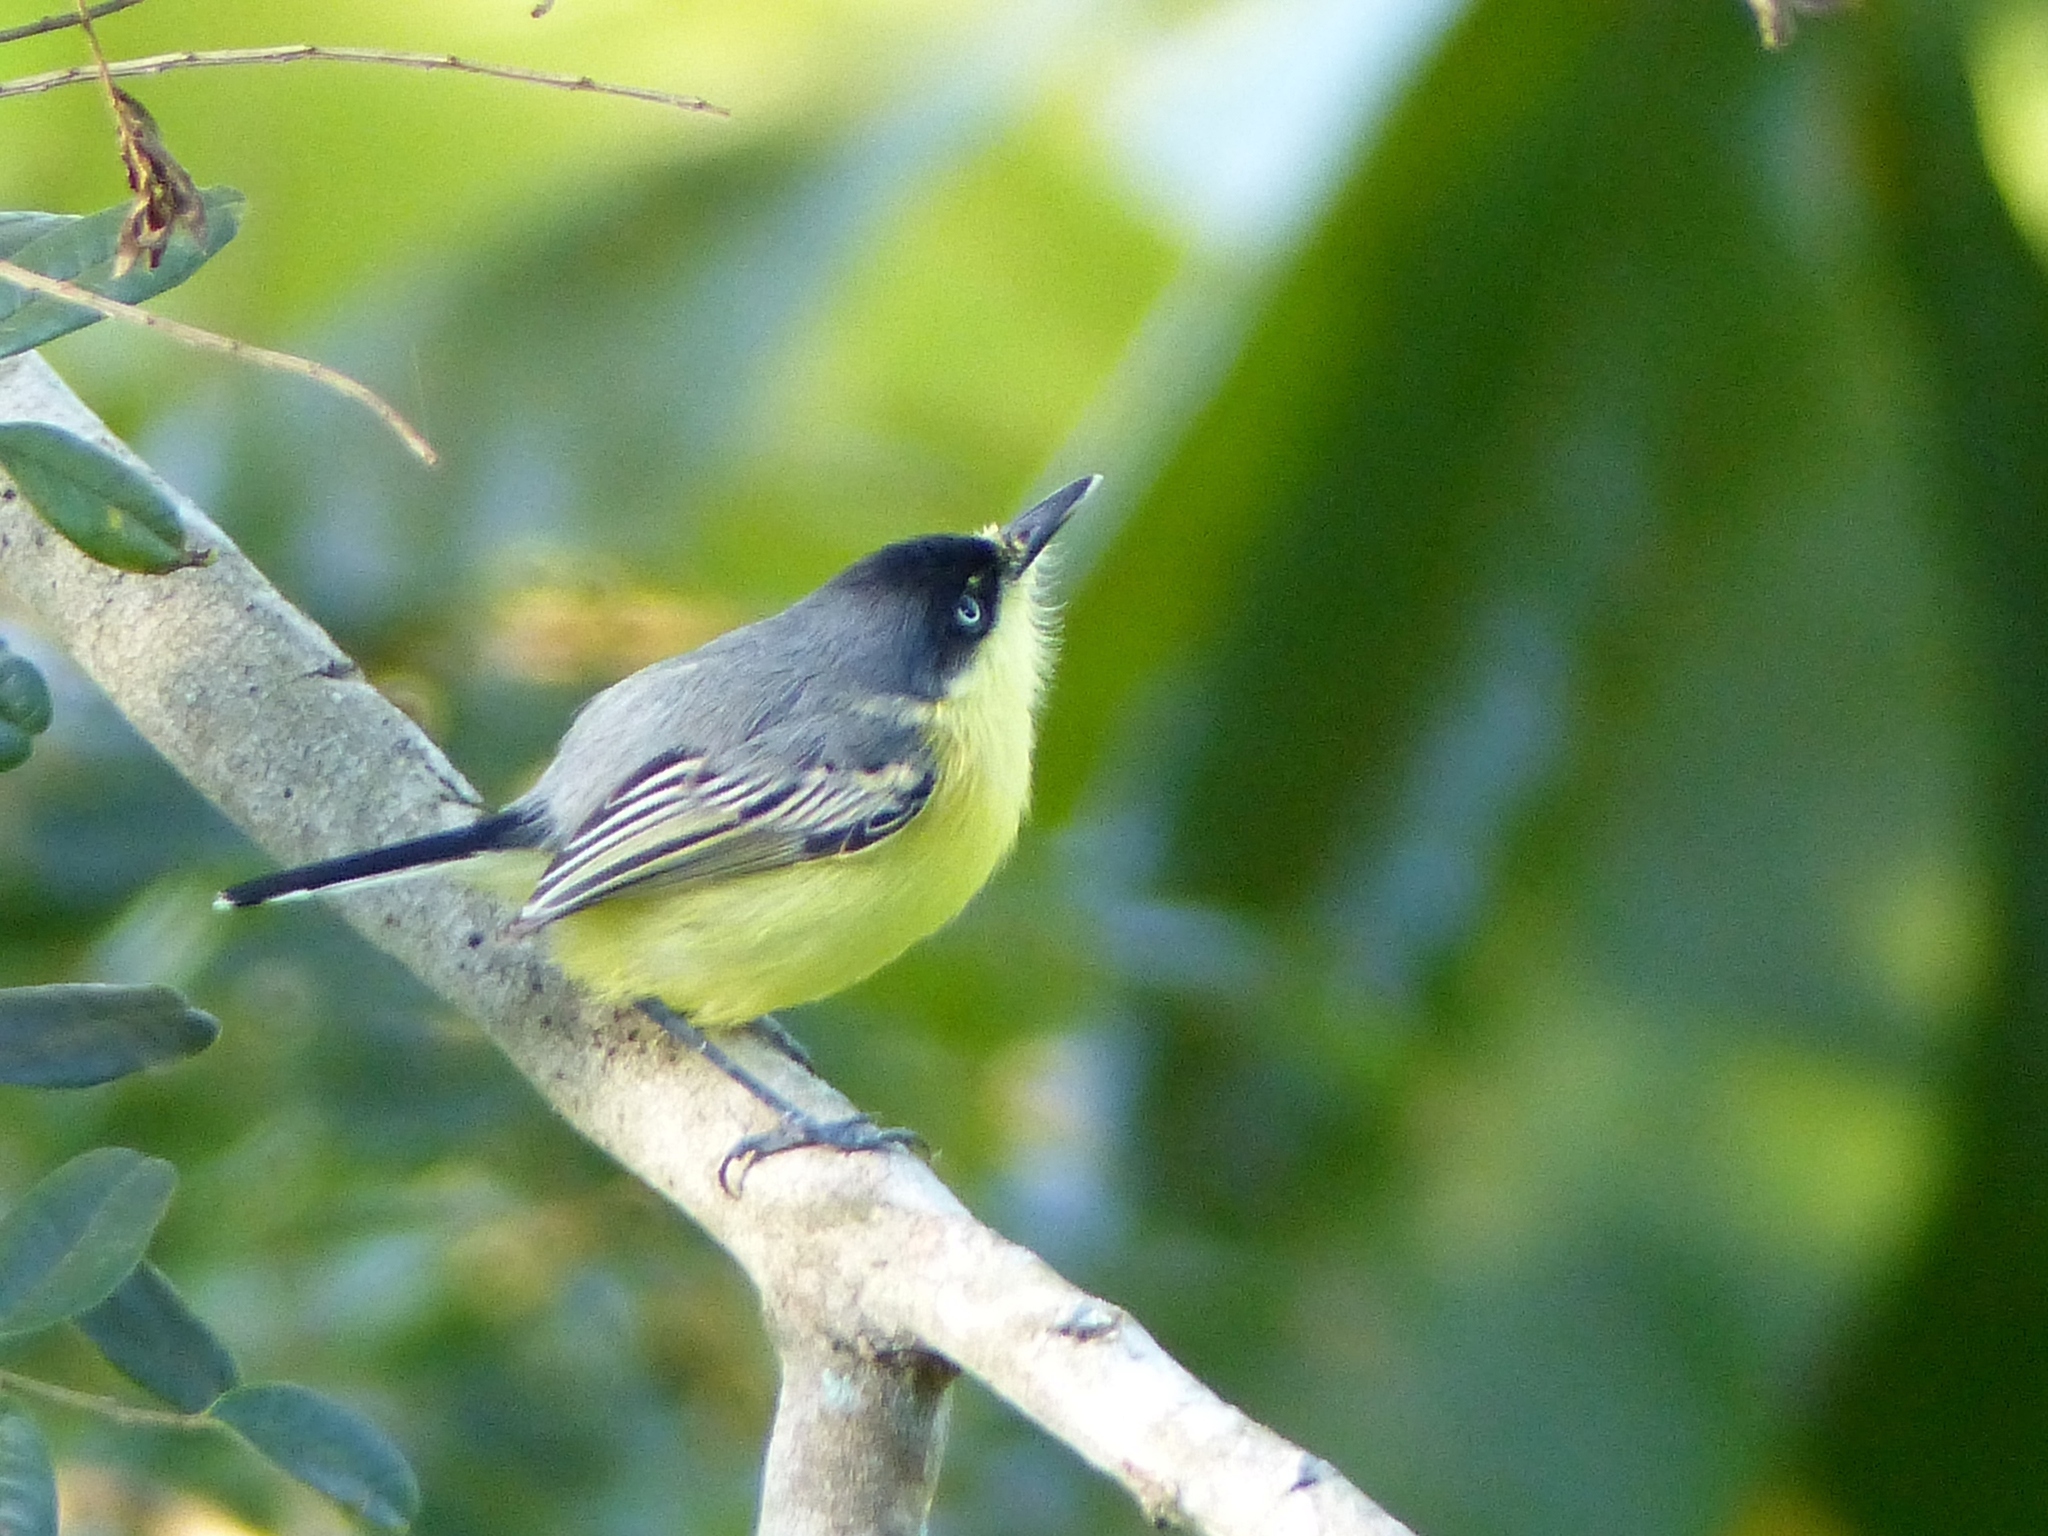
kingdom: Animalia
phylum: Chordata
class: Aves
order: Passeriformes
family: Tyrannidae
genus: Todirostrum
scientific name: Todirostrum cinereum
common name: Common tody-flycatcher
